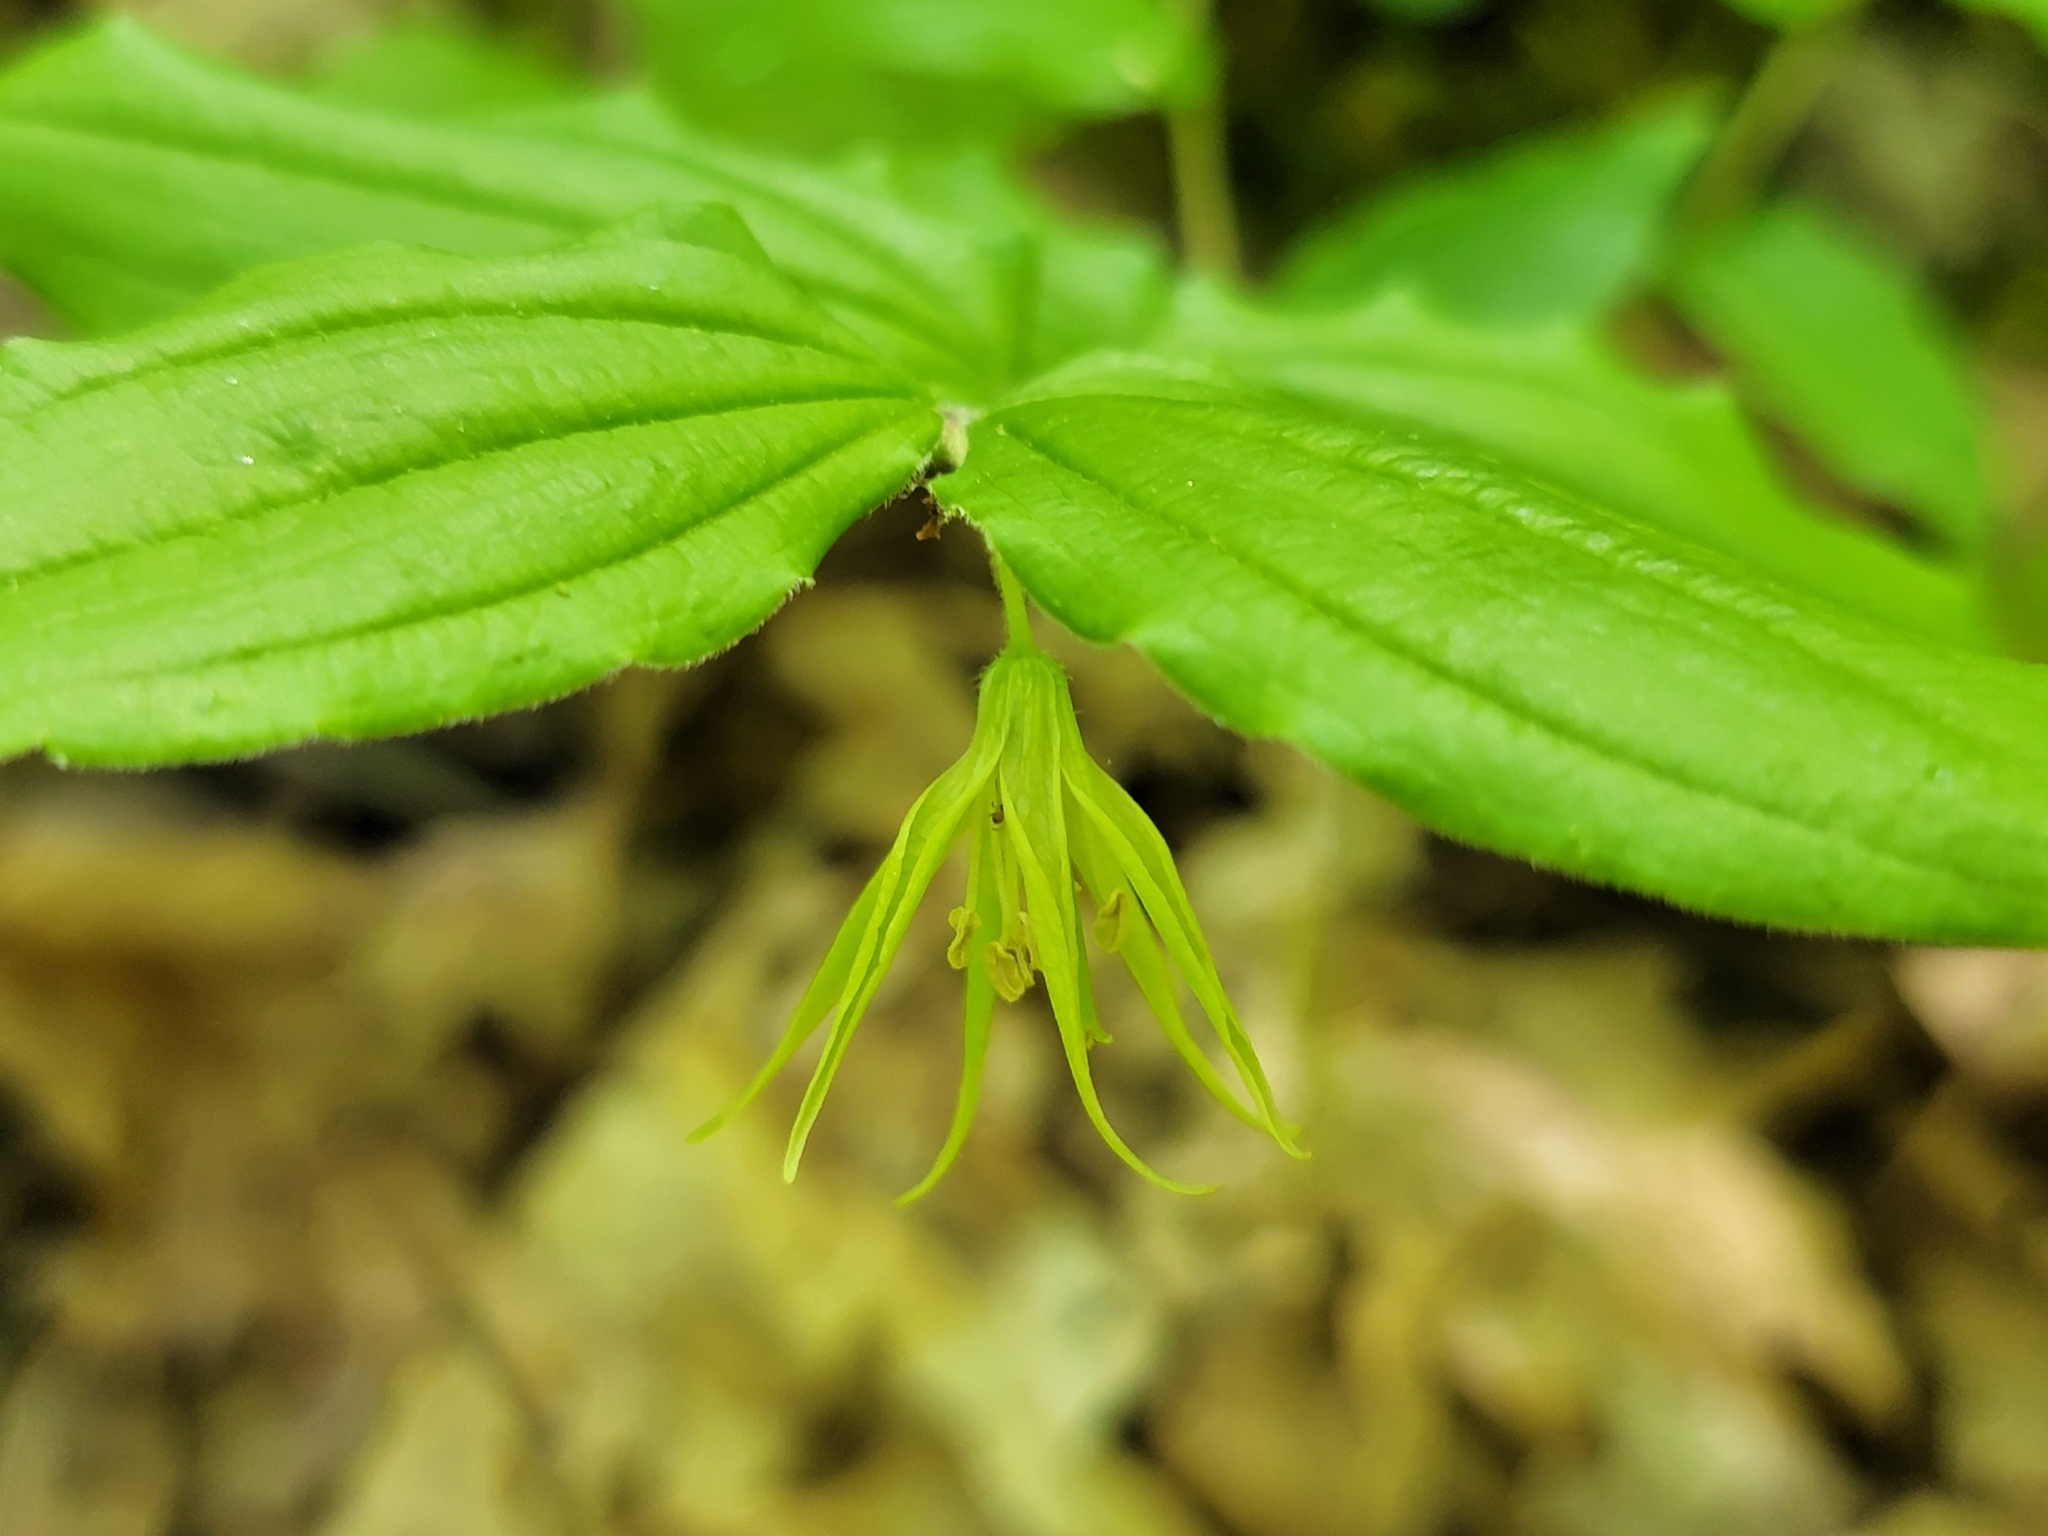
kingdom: Plantae
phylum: Tracheophyta
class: Liliopsida
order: Liliales
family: Liliaceae
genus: Prosartes
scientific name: Prosartes lanuginosa
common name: Hairy mandarin
